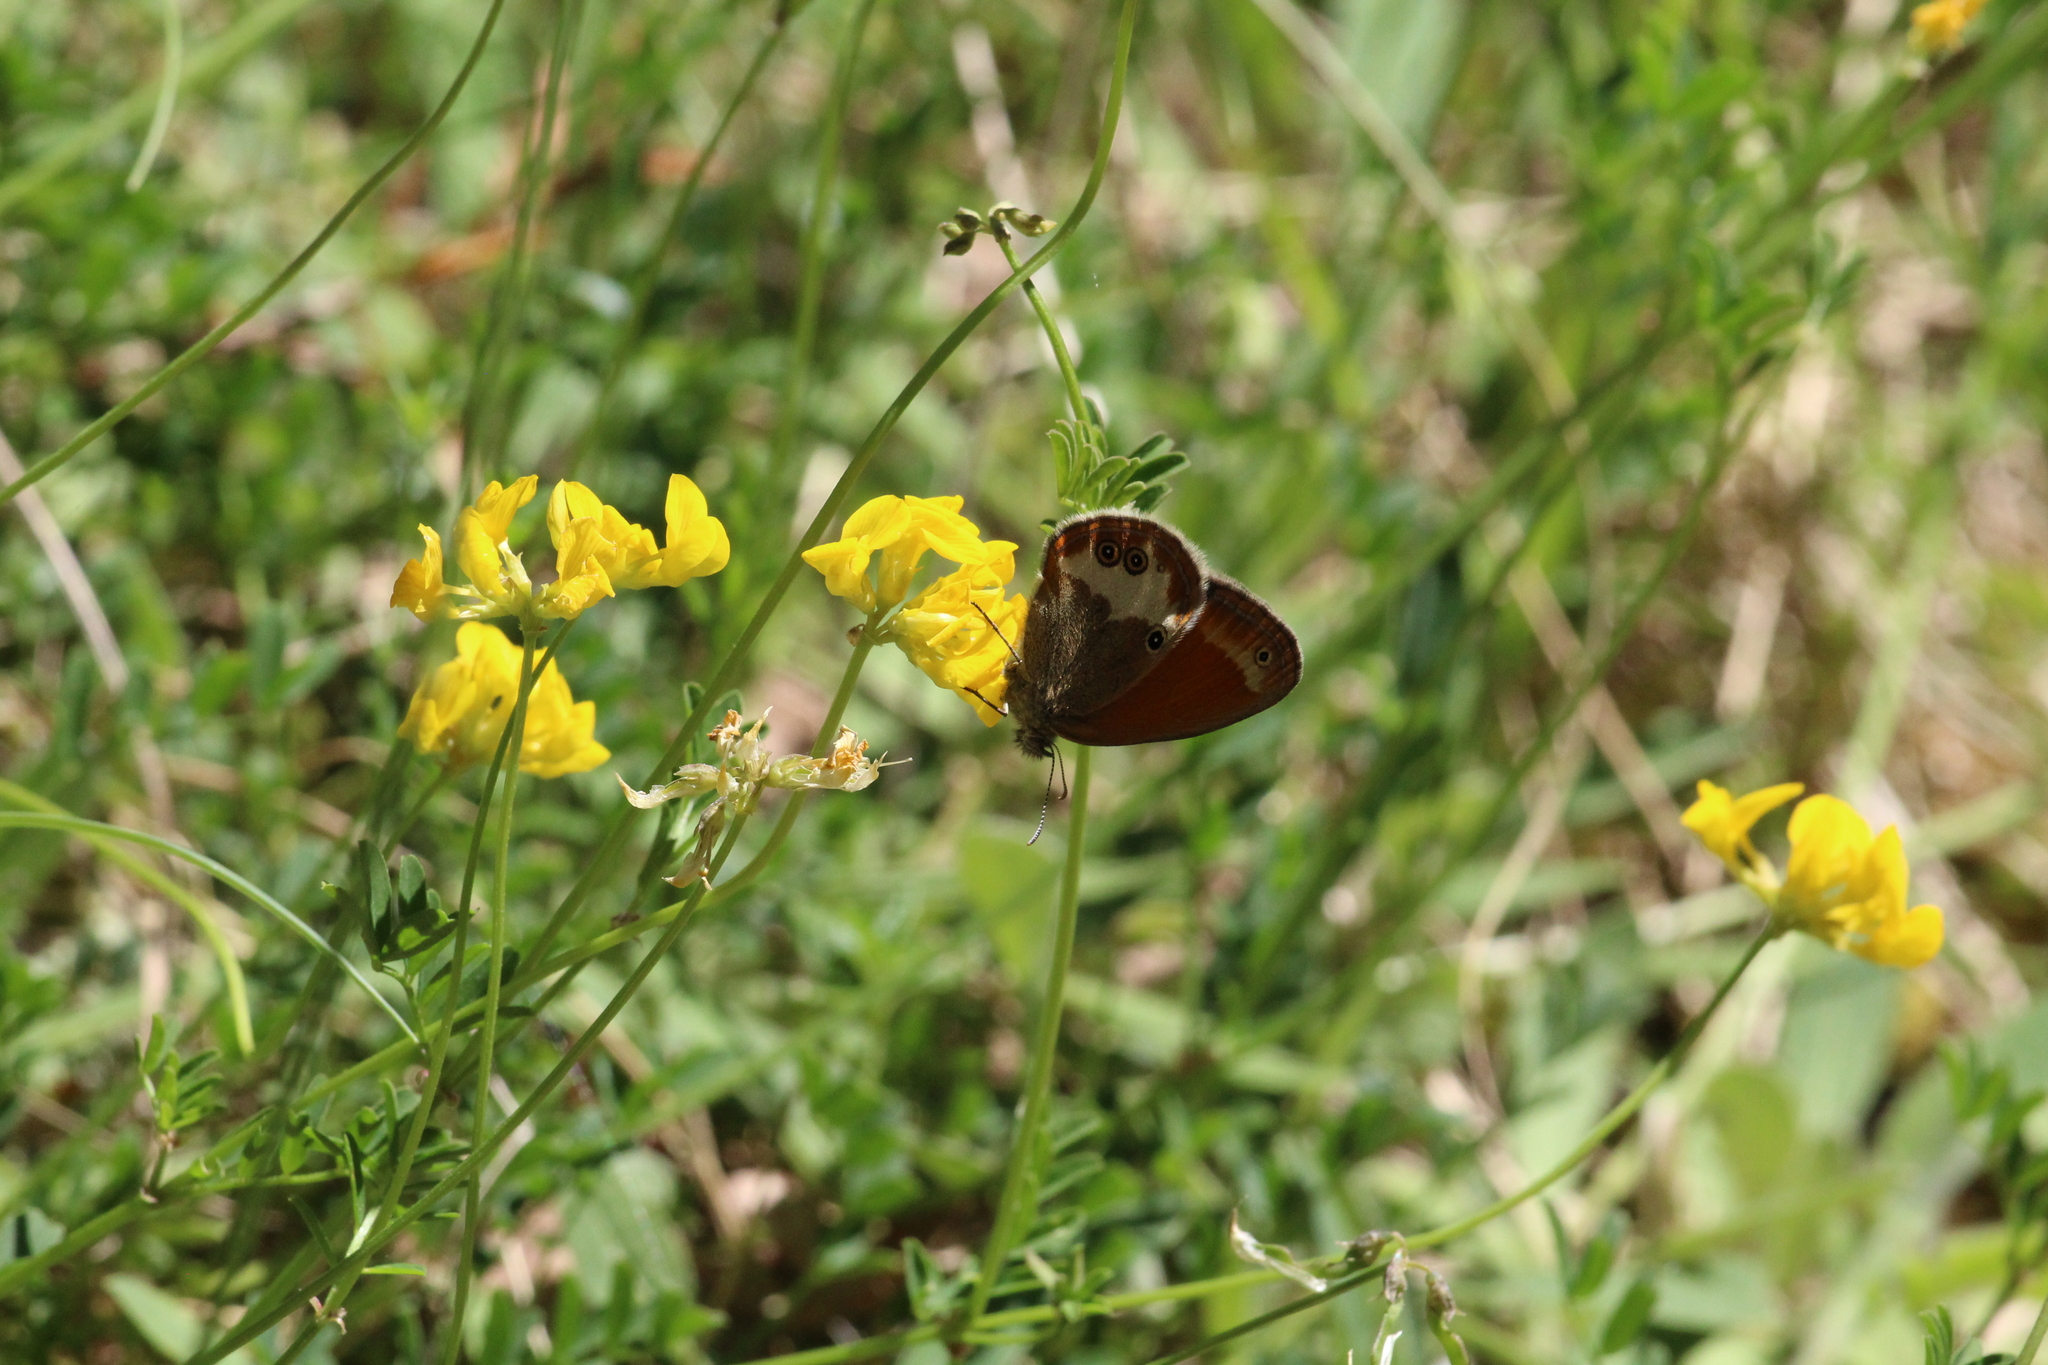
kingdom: Animalia
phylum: Arthropoda
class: Insecta
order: Lepidoptera
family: Nymphalidae
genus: Coenonympha
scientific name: Coenonympha arcania
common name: Pearly heath
